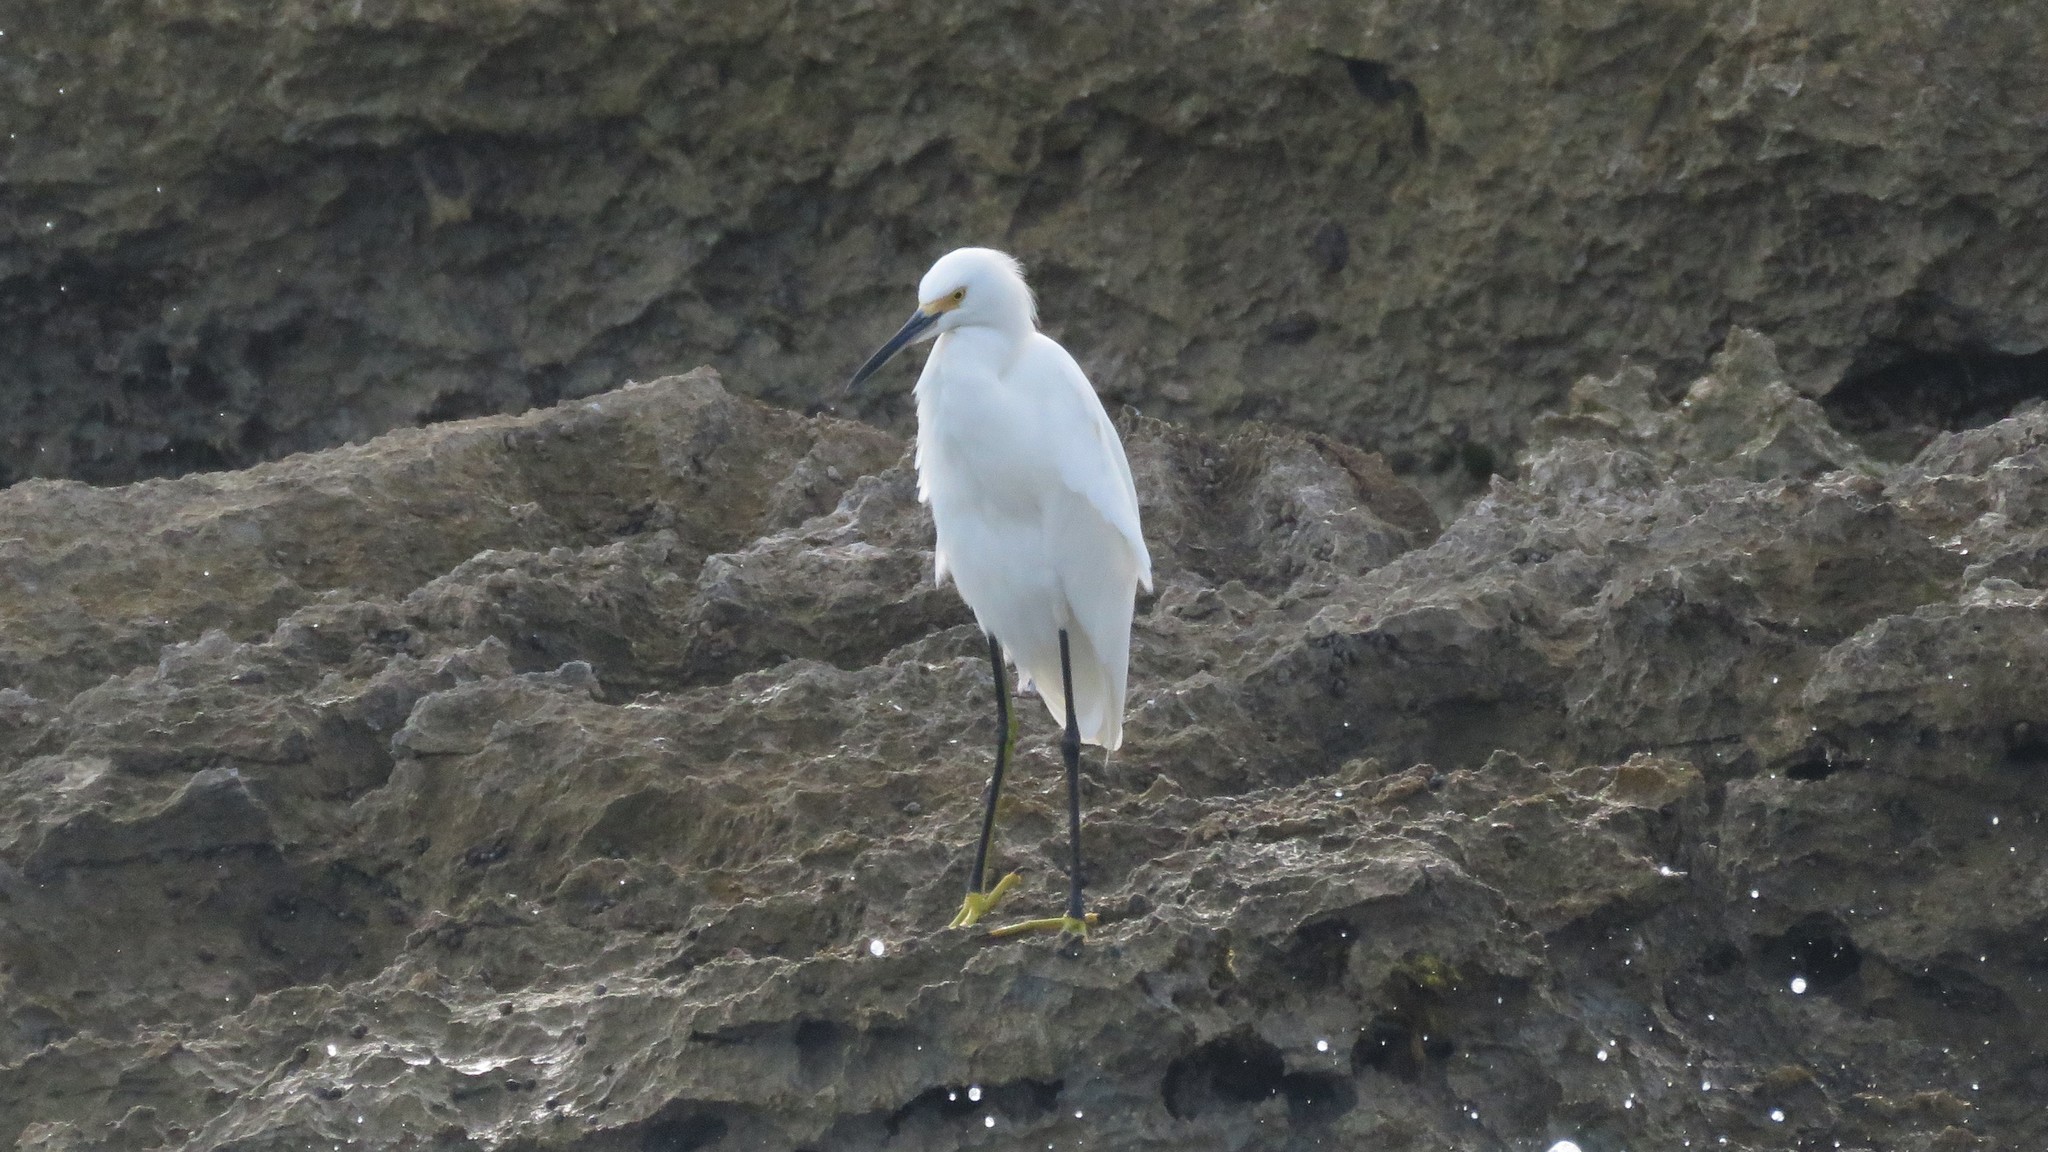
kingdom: Animalia
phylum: Chordata
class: Aves
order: Pelecaniformes
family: Ardeidae
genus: Egretta
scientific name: Egretta thula
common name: Snowy egret
